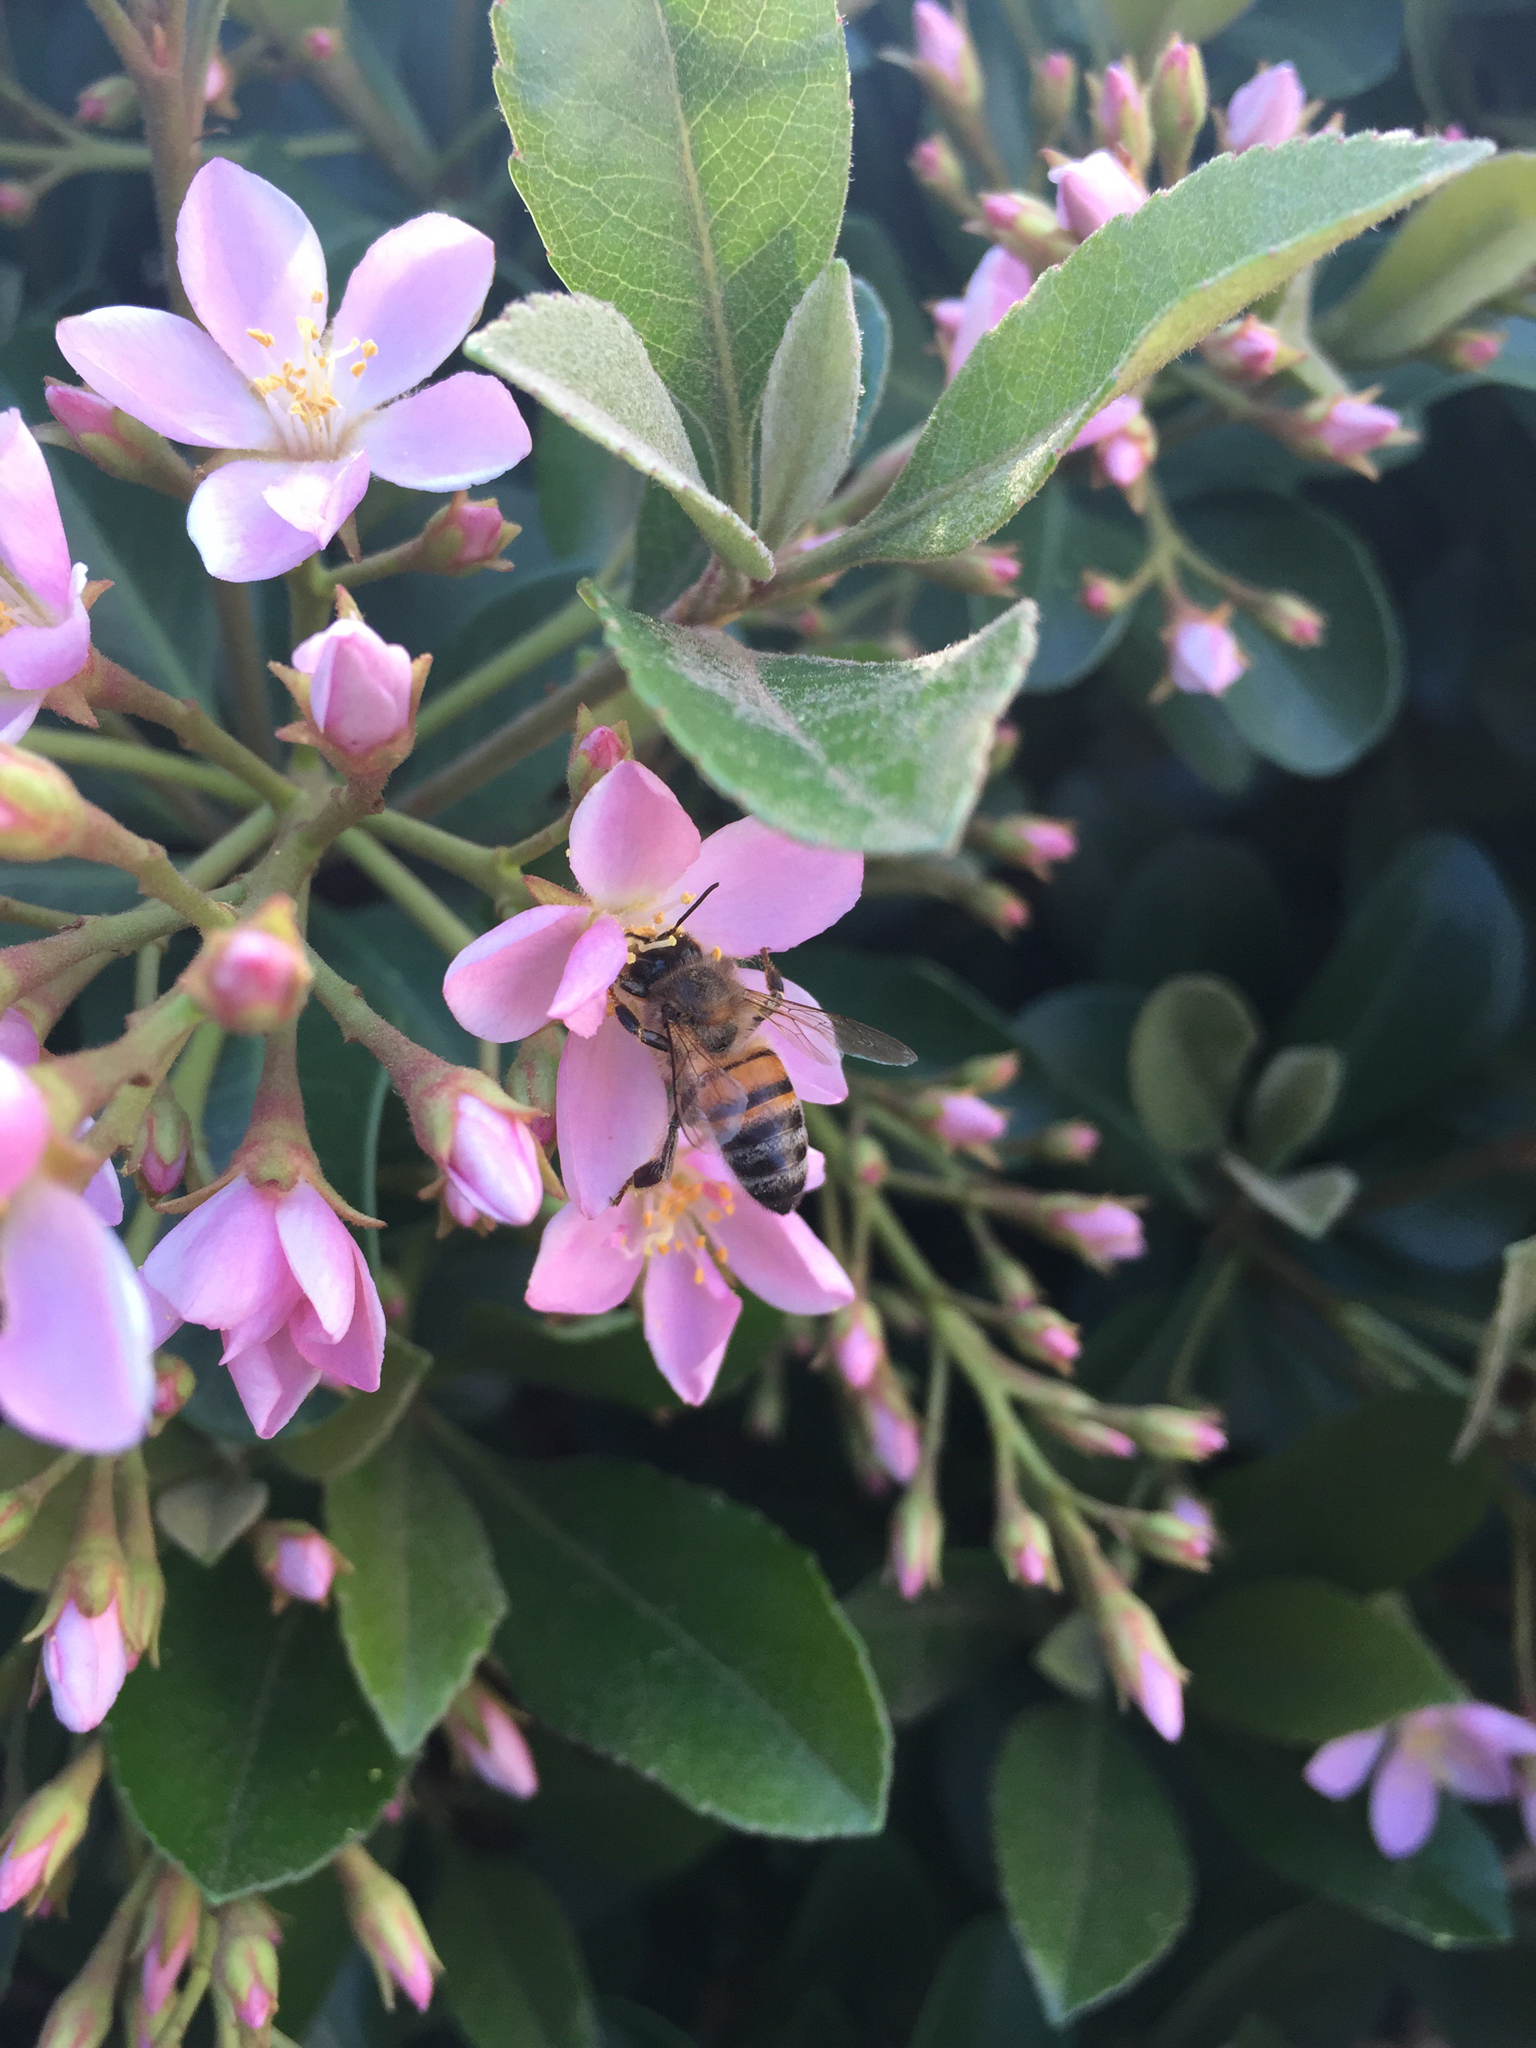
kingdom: Animalia
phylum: Arthropoda
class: Insecta
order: Hymenoptera
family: Apidae
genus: Apis
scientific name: Apis mellifera
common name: Honey bee
